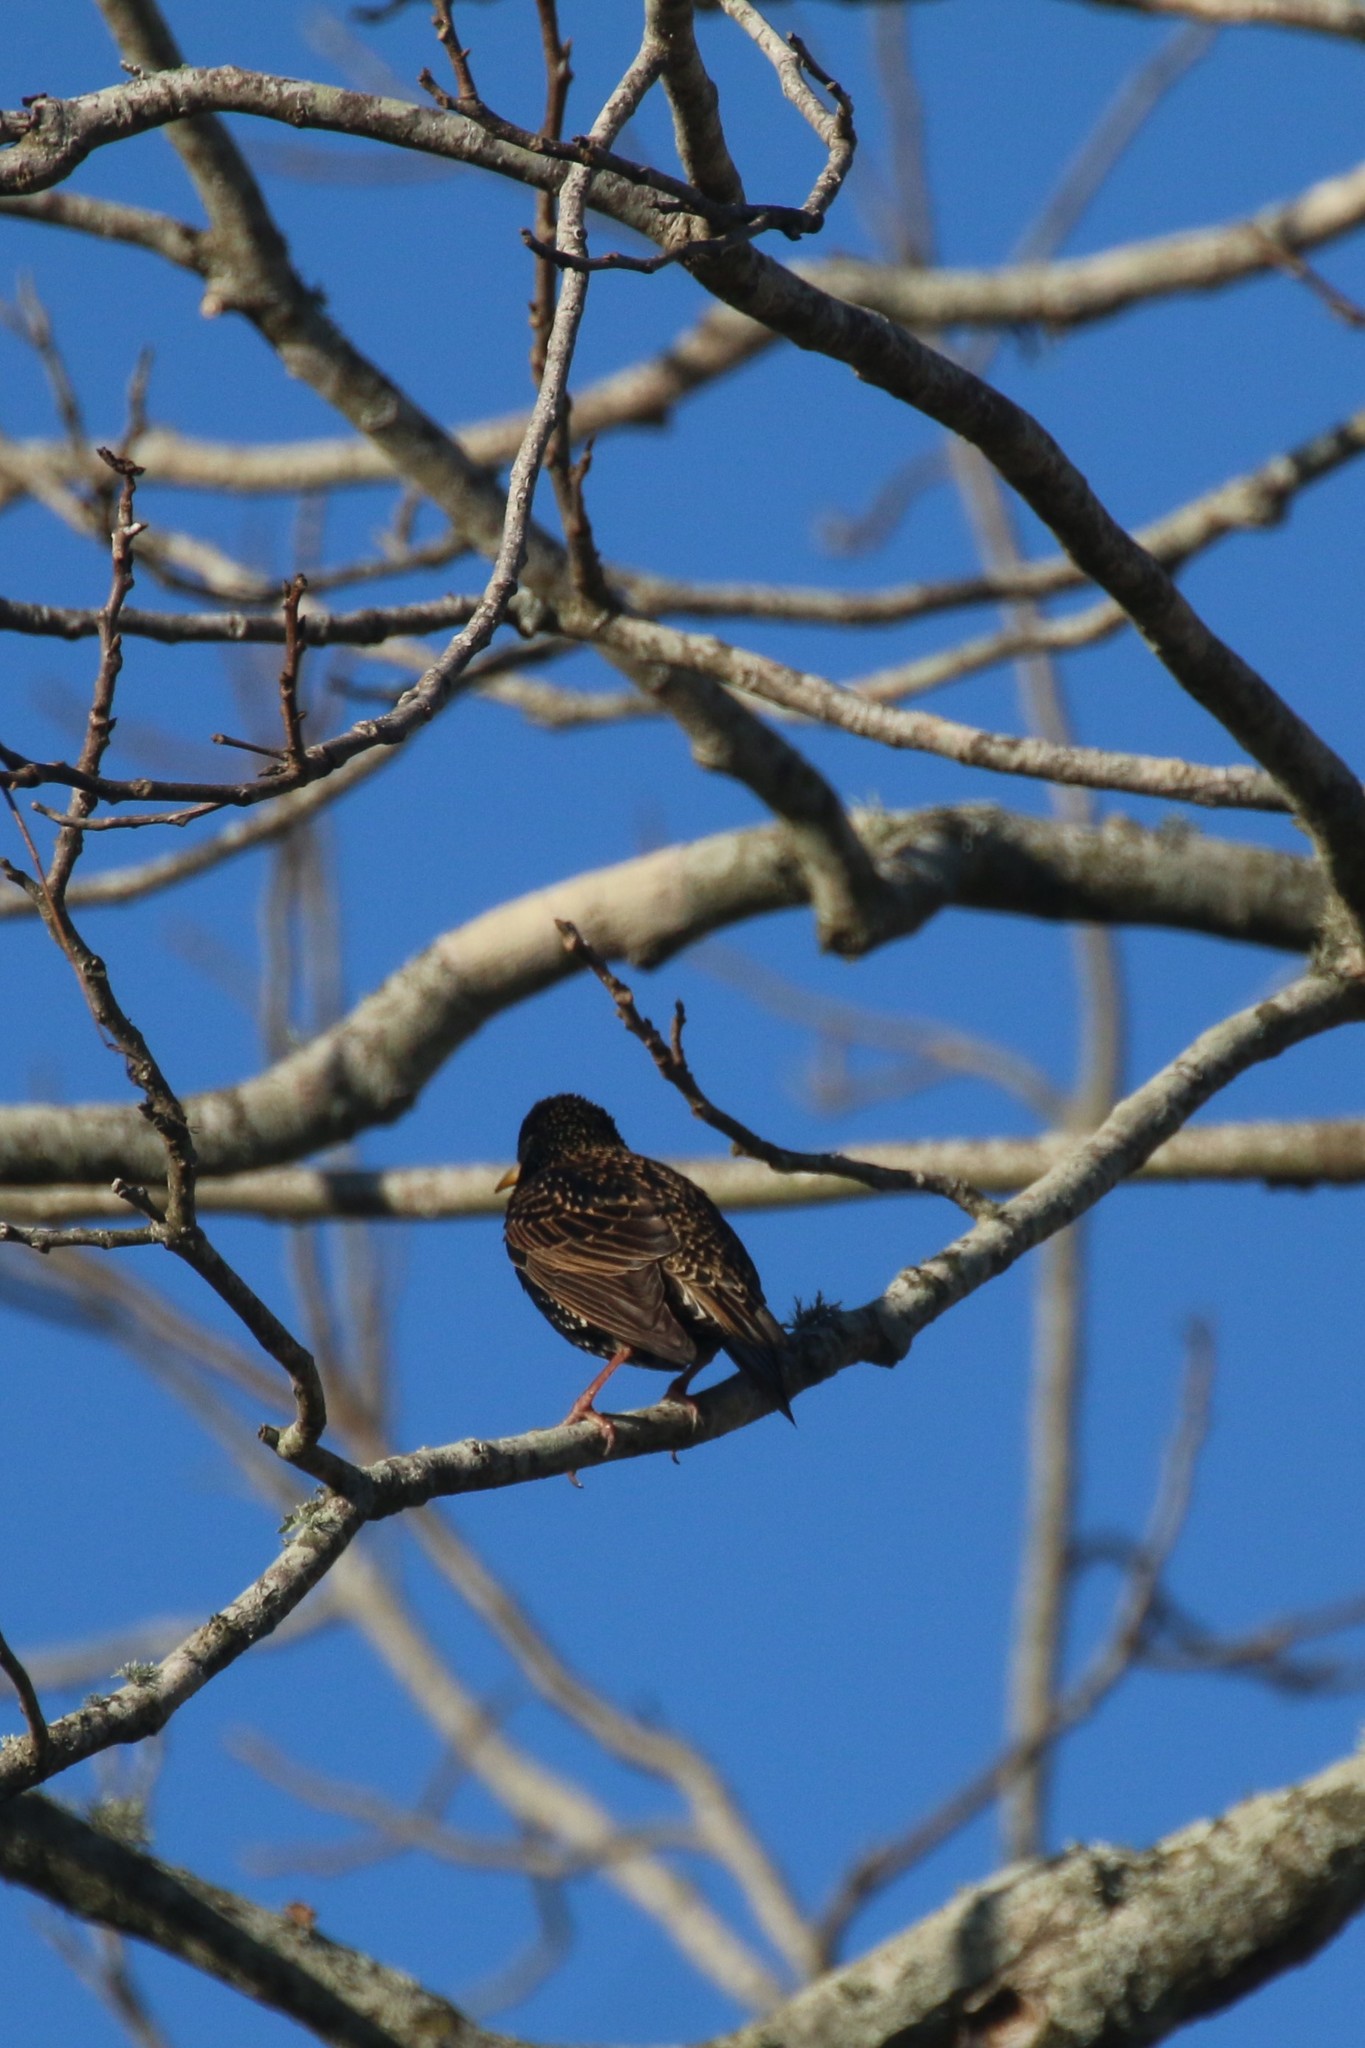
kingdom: Animalia
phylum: Chordata
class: Aves
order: Passeriformes
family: Sturnidae
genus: Sturnus
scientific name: Sturnus vulgaris
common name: Common starling
